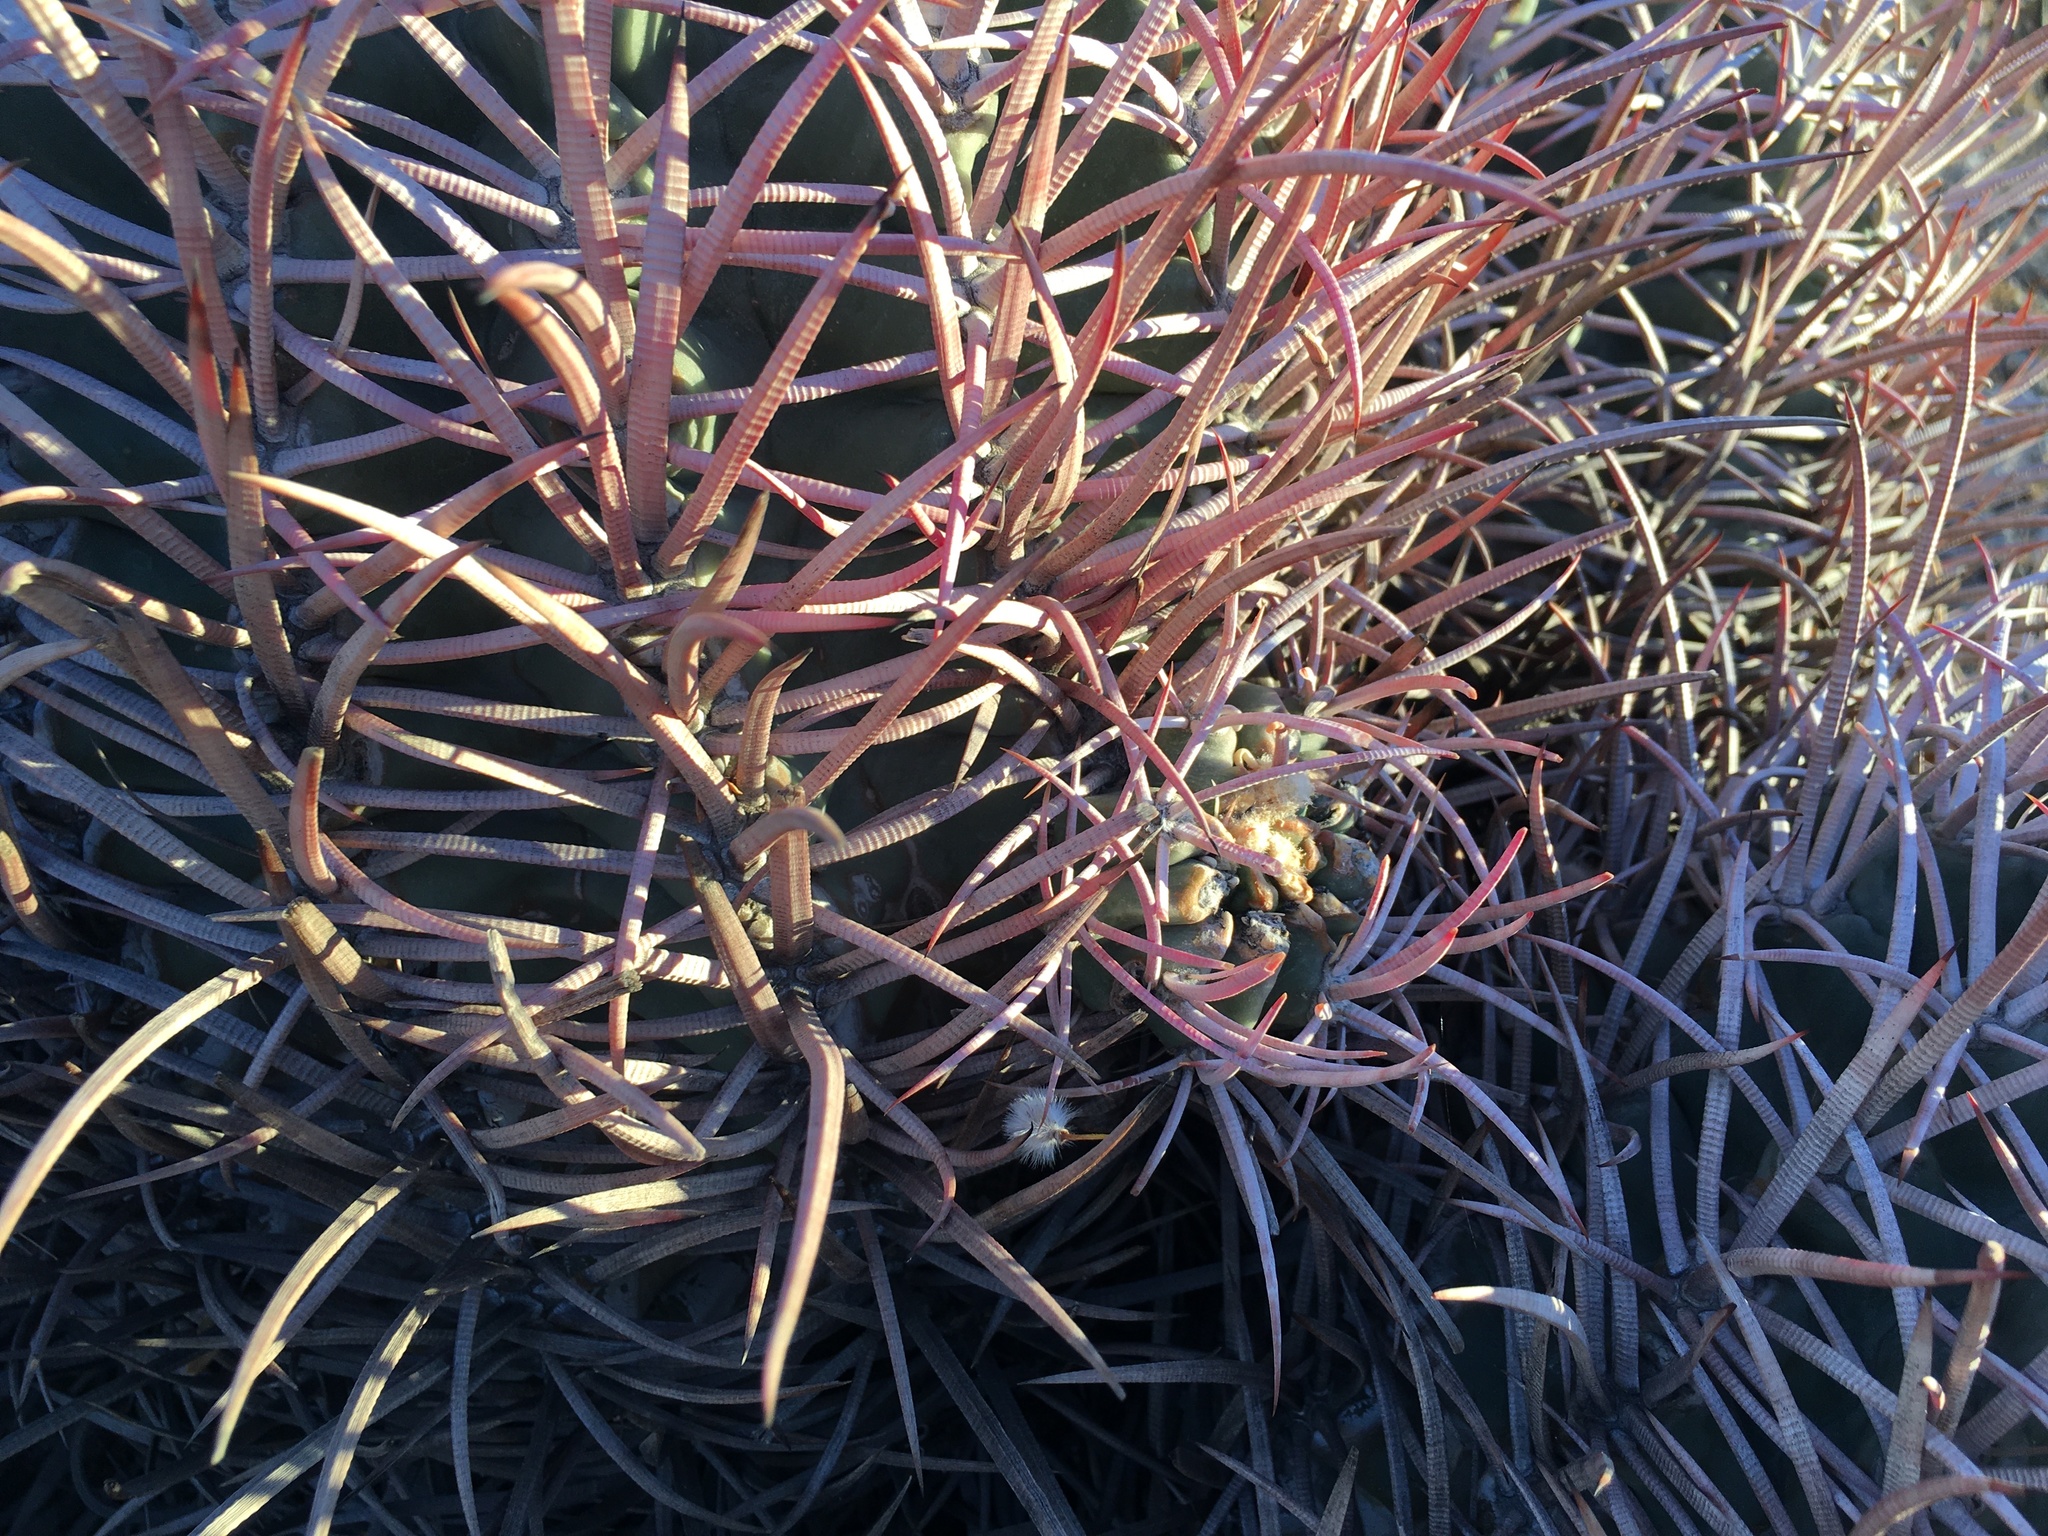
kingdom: Plantae
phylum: Tracheophyta
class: Magnoliopsida
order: Caryophyllales
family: Cactaceae
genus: Echinocactus
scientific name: Echinocactus polycephalus
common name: Cottontop cactus
